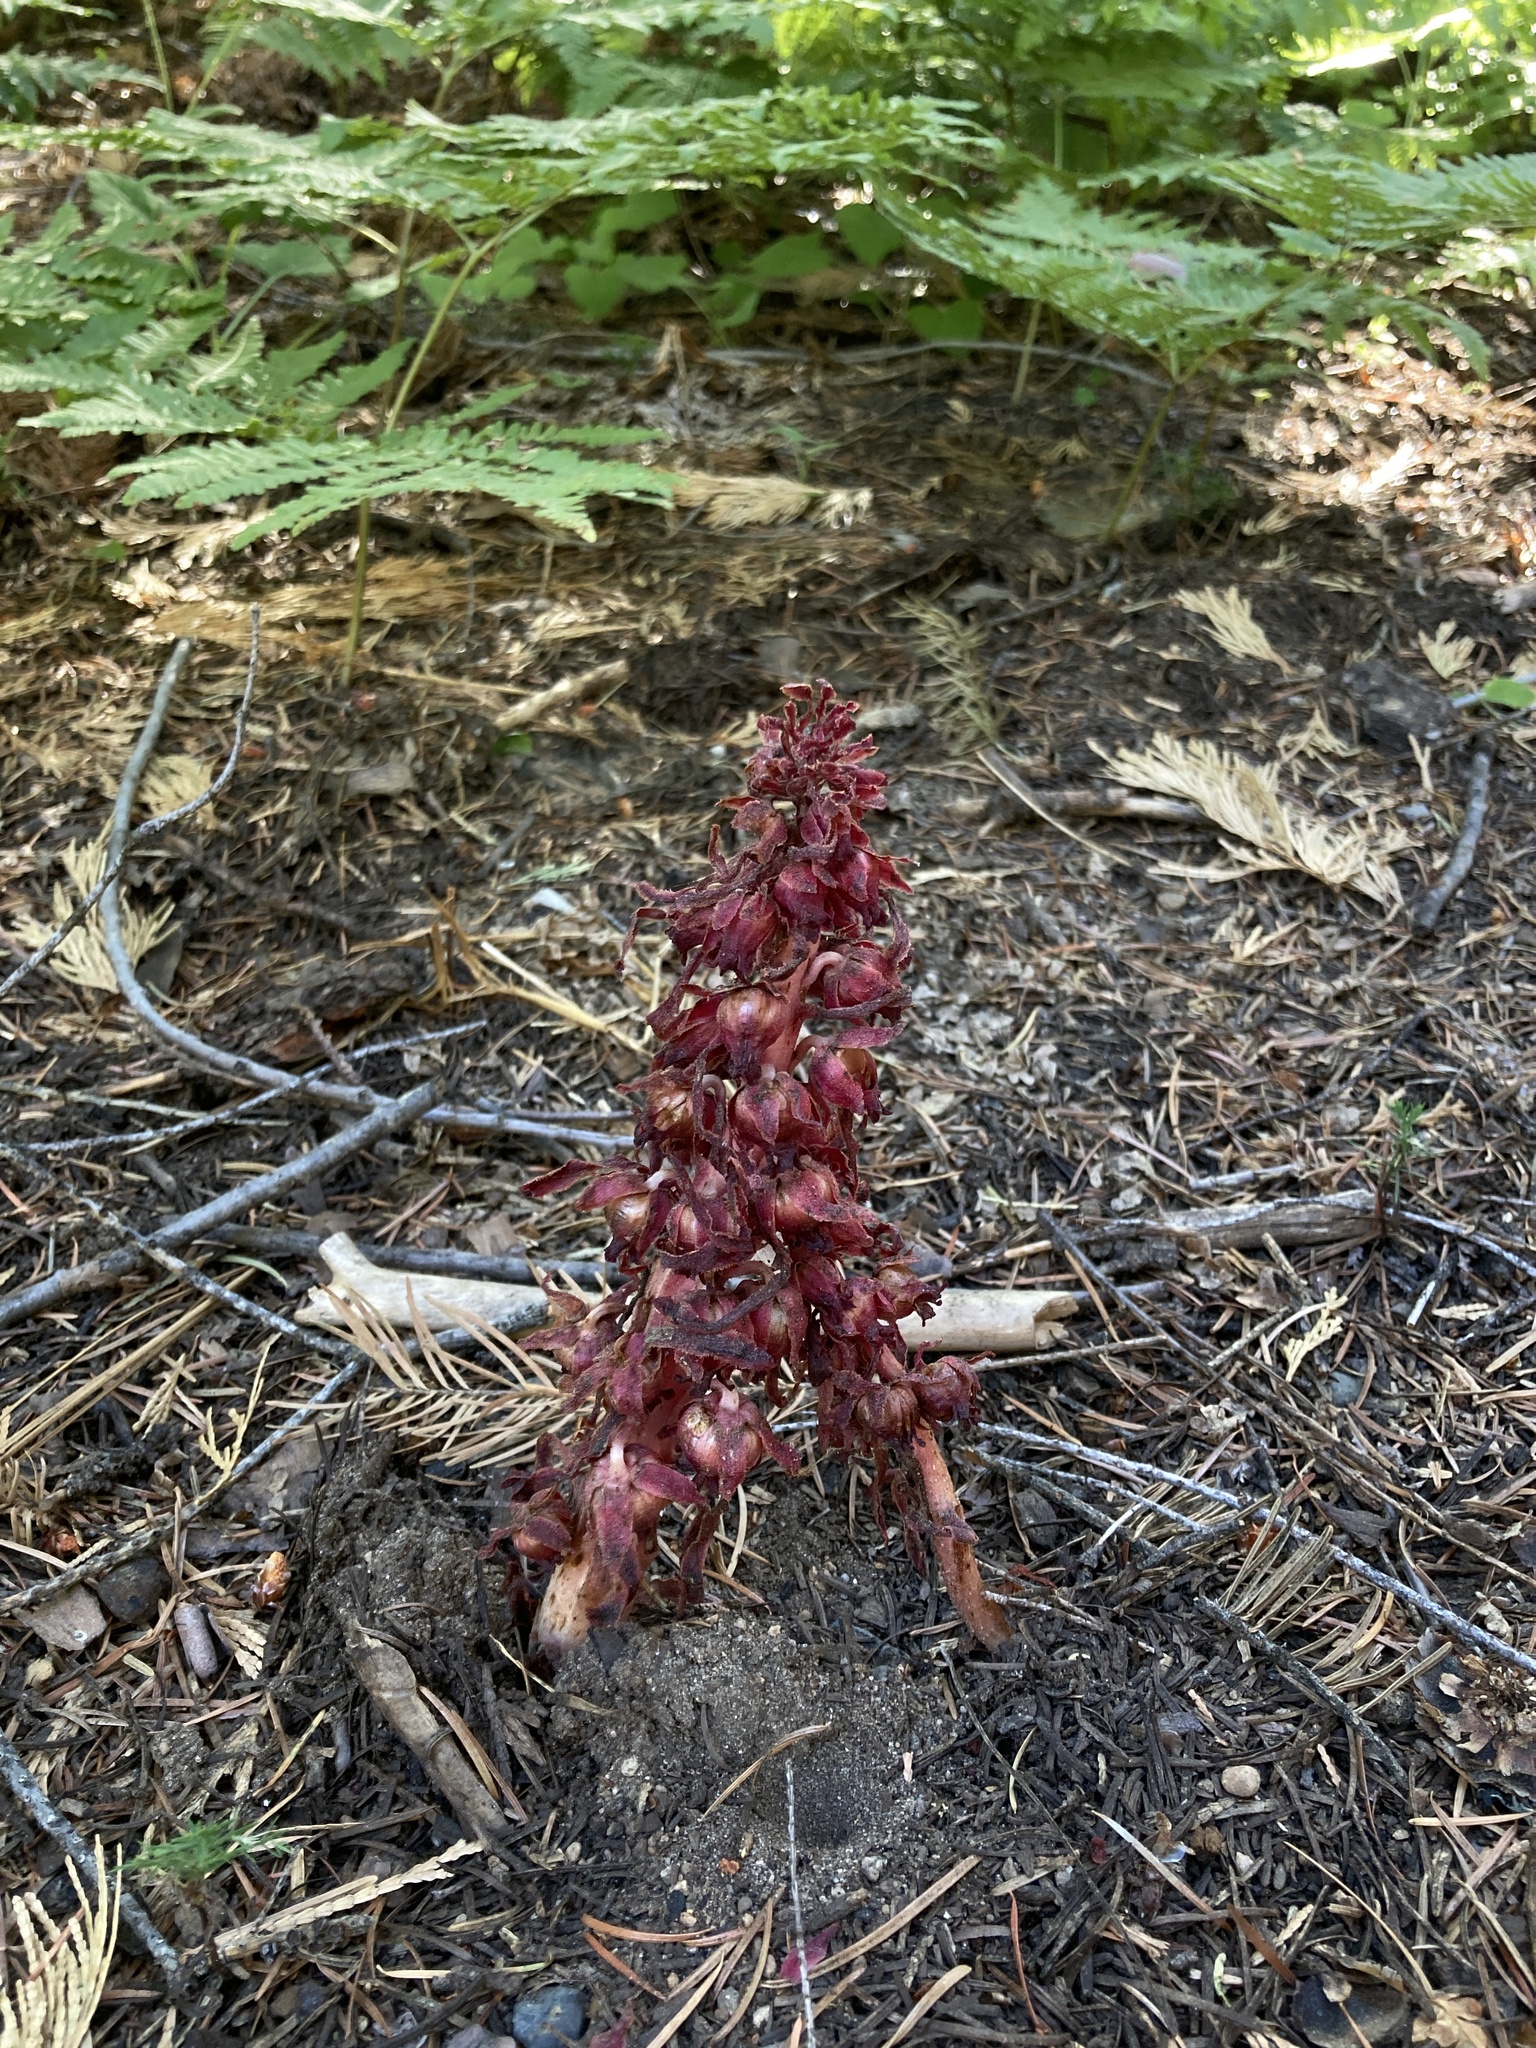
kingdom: Plantae
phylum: Tracheophyta
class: Magnoliopsida
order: Ericales
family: Ericaceae
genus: Sarcodes
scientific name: Sarcodes sanguinea
